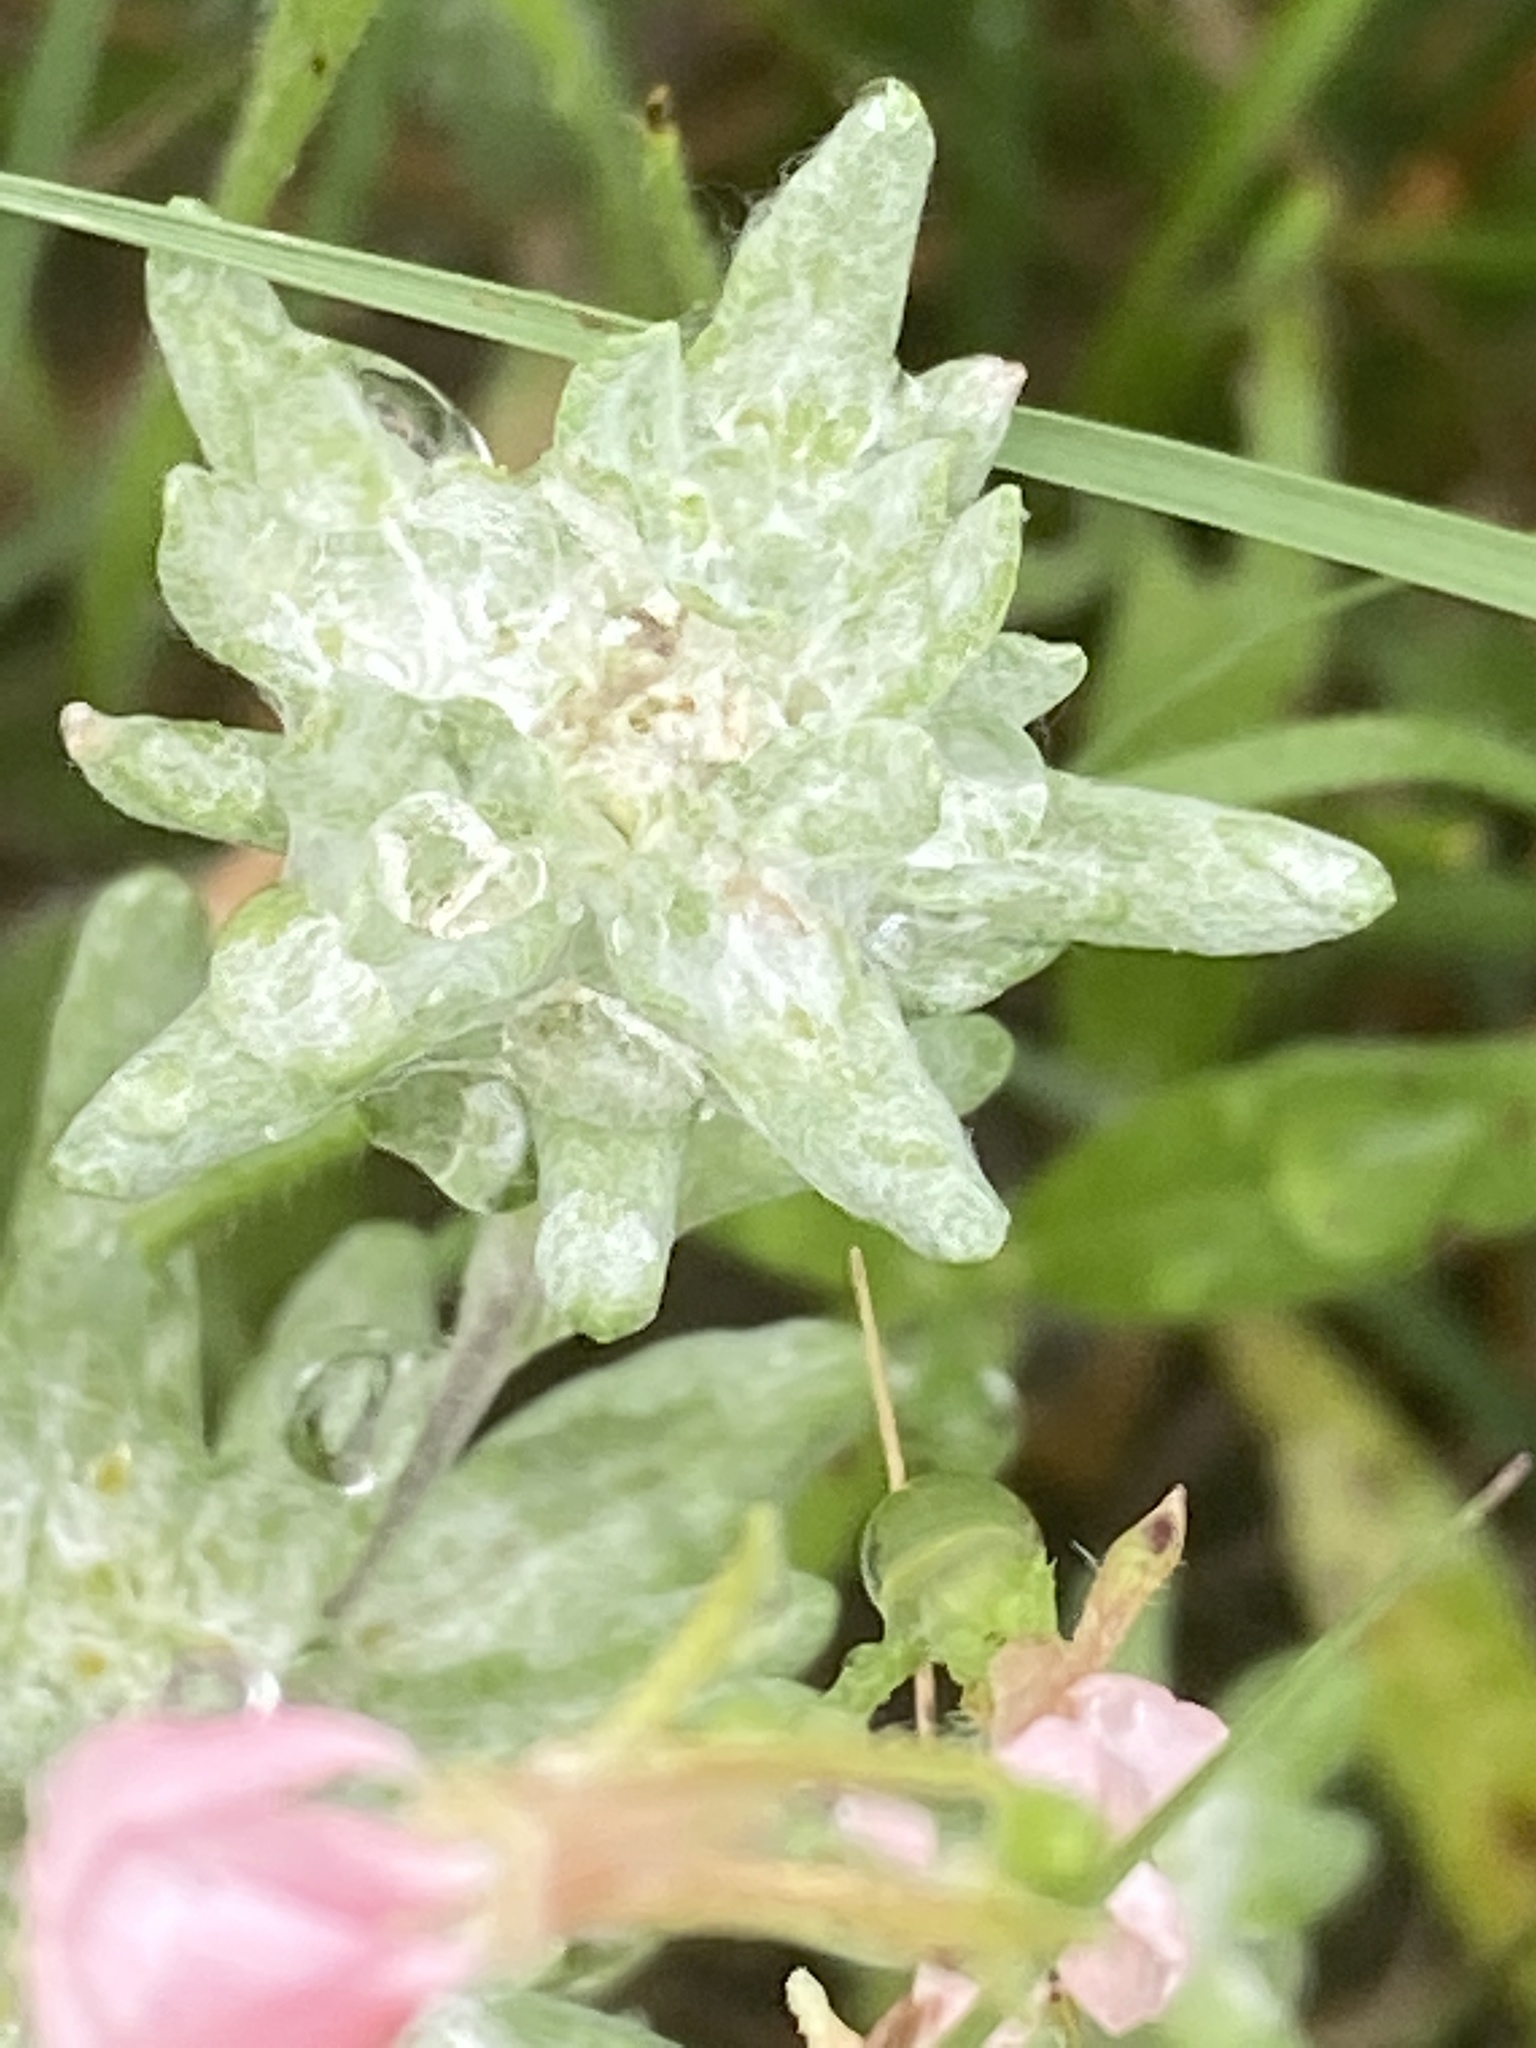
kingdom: Plantae
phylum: Tracheophyta
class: Magnoliopsida
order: Asterales
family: Asteraceae
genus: Diaperia
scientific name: Diaperia prolifera
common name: Big-head rabbit-tobacco
